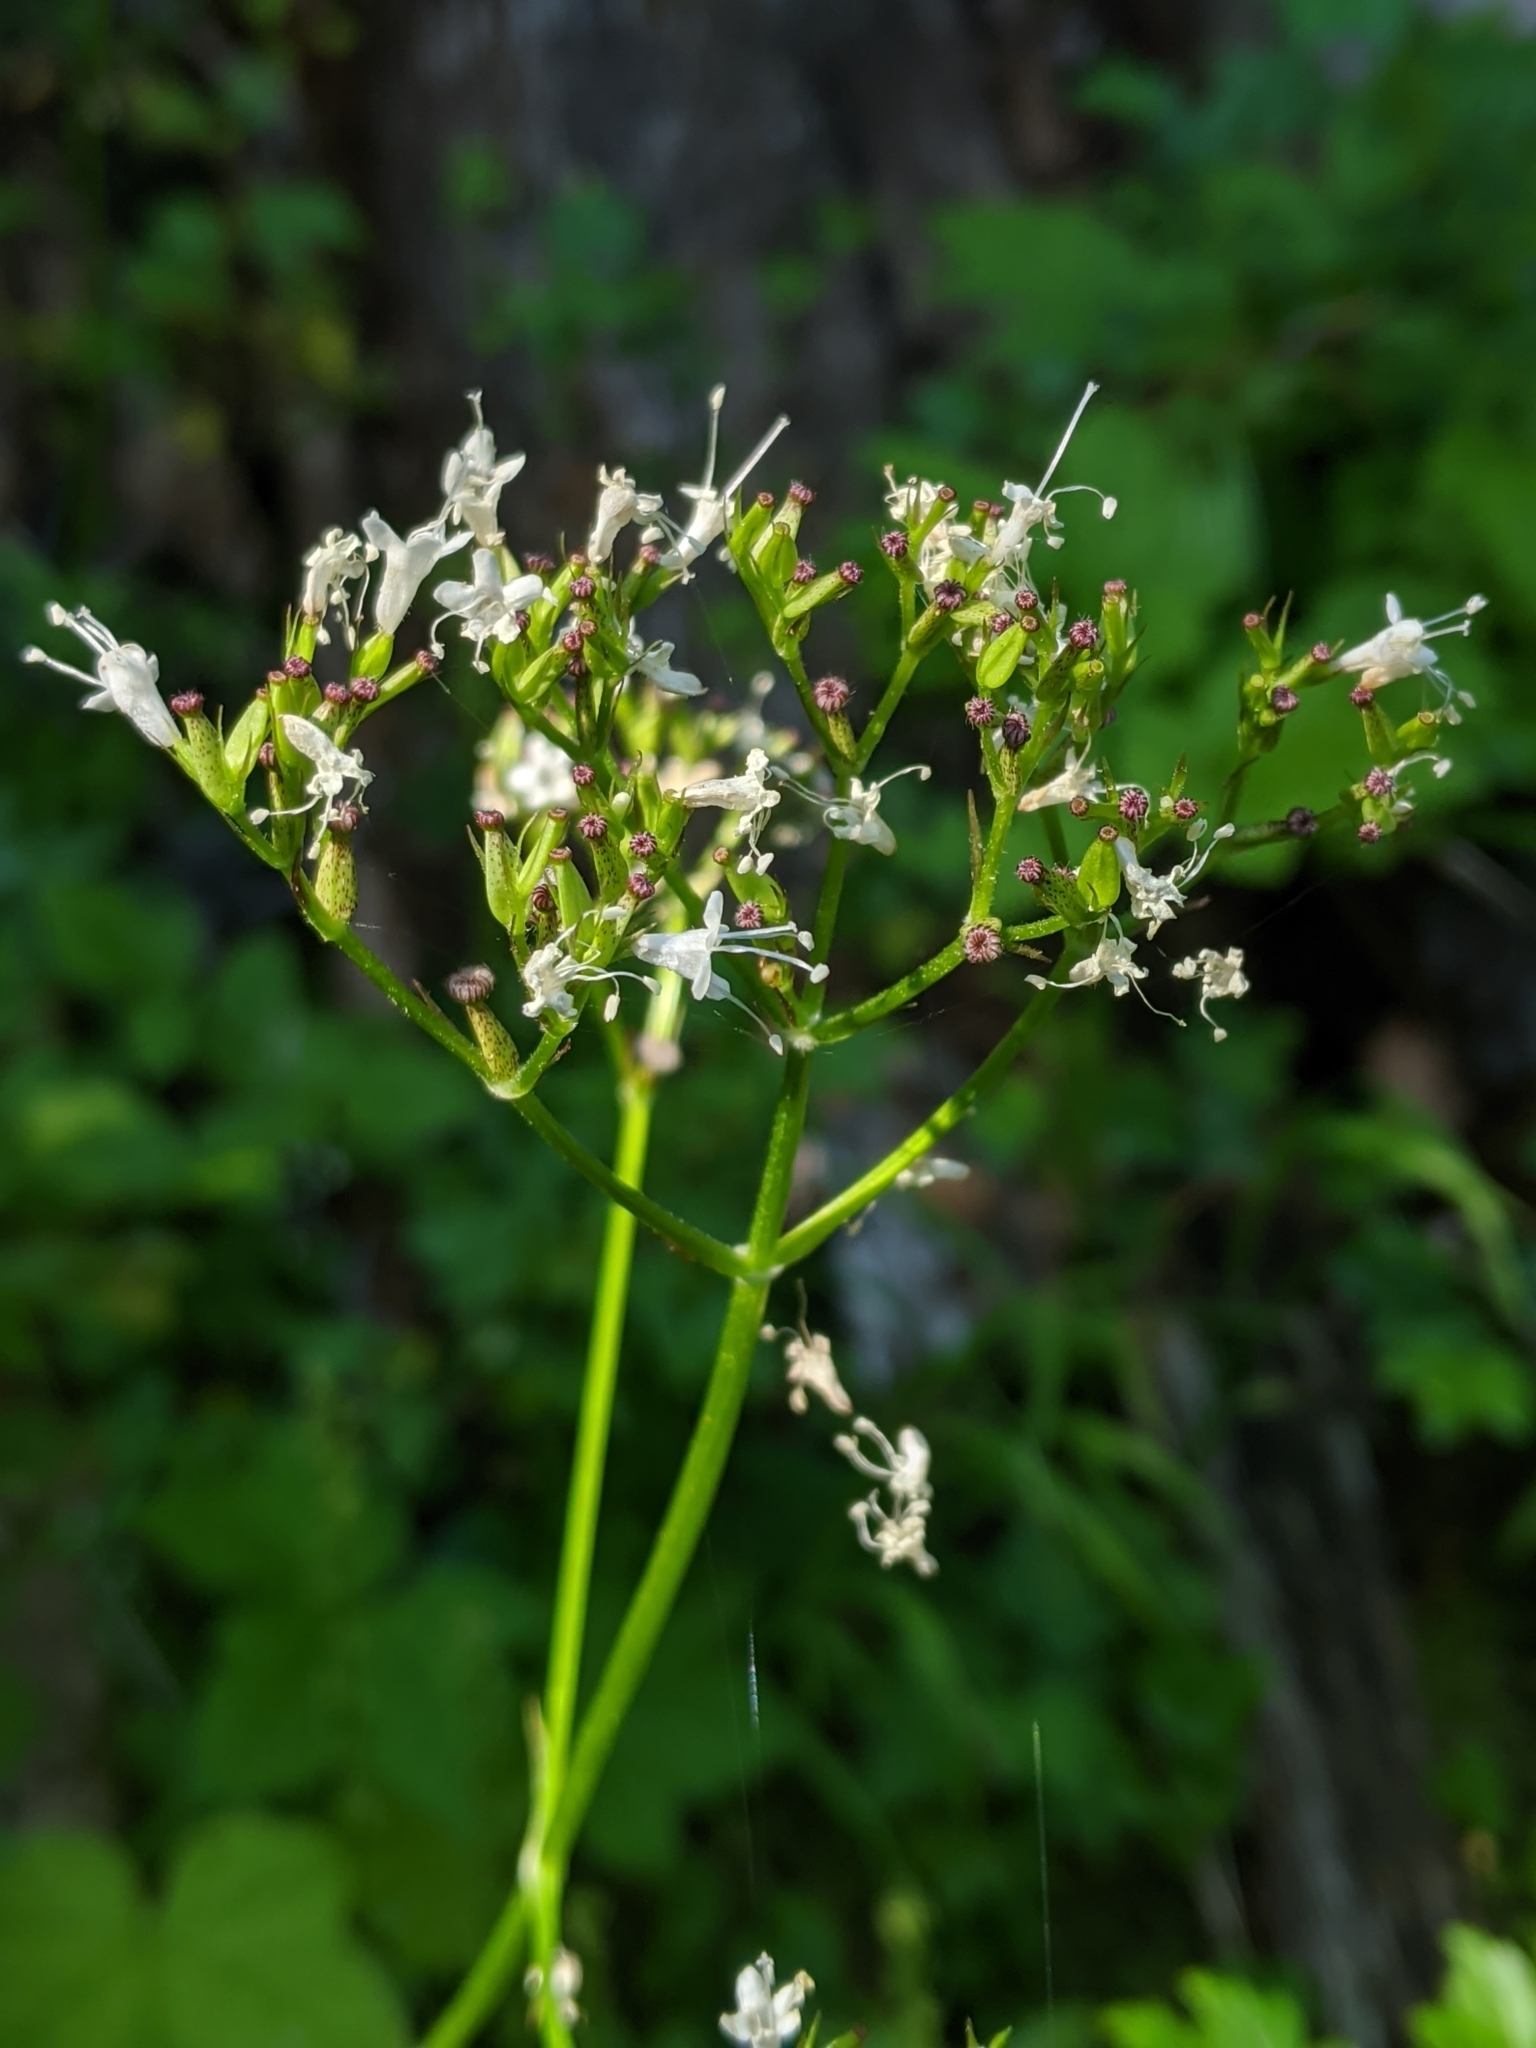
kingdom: Plantae
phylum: Tracheophyta
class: Magnoliopsida
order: Dipsacales
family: Caprifoliaceae
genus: Valeriana
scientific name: Valeriana sitchensis
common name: Pacific valerian
